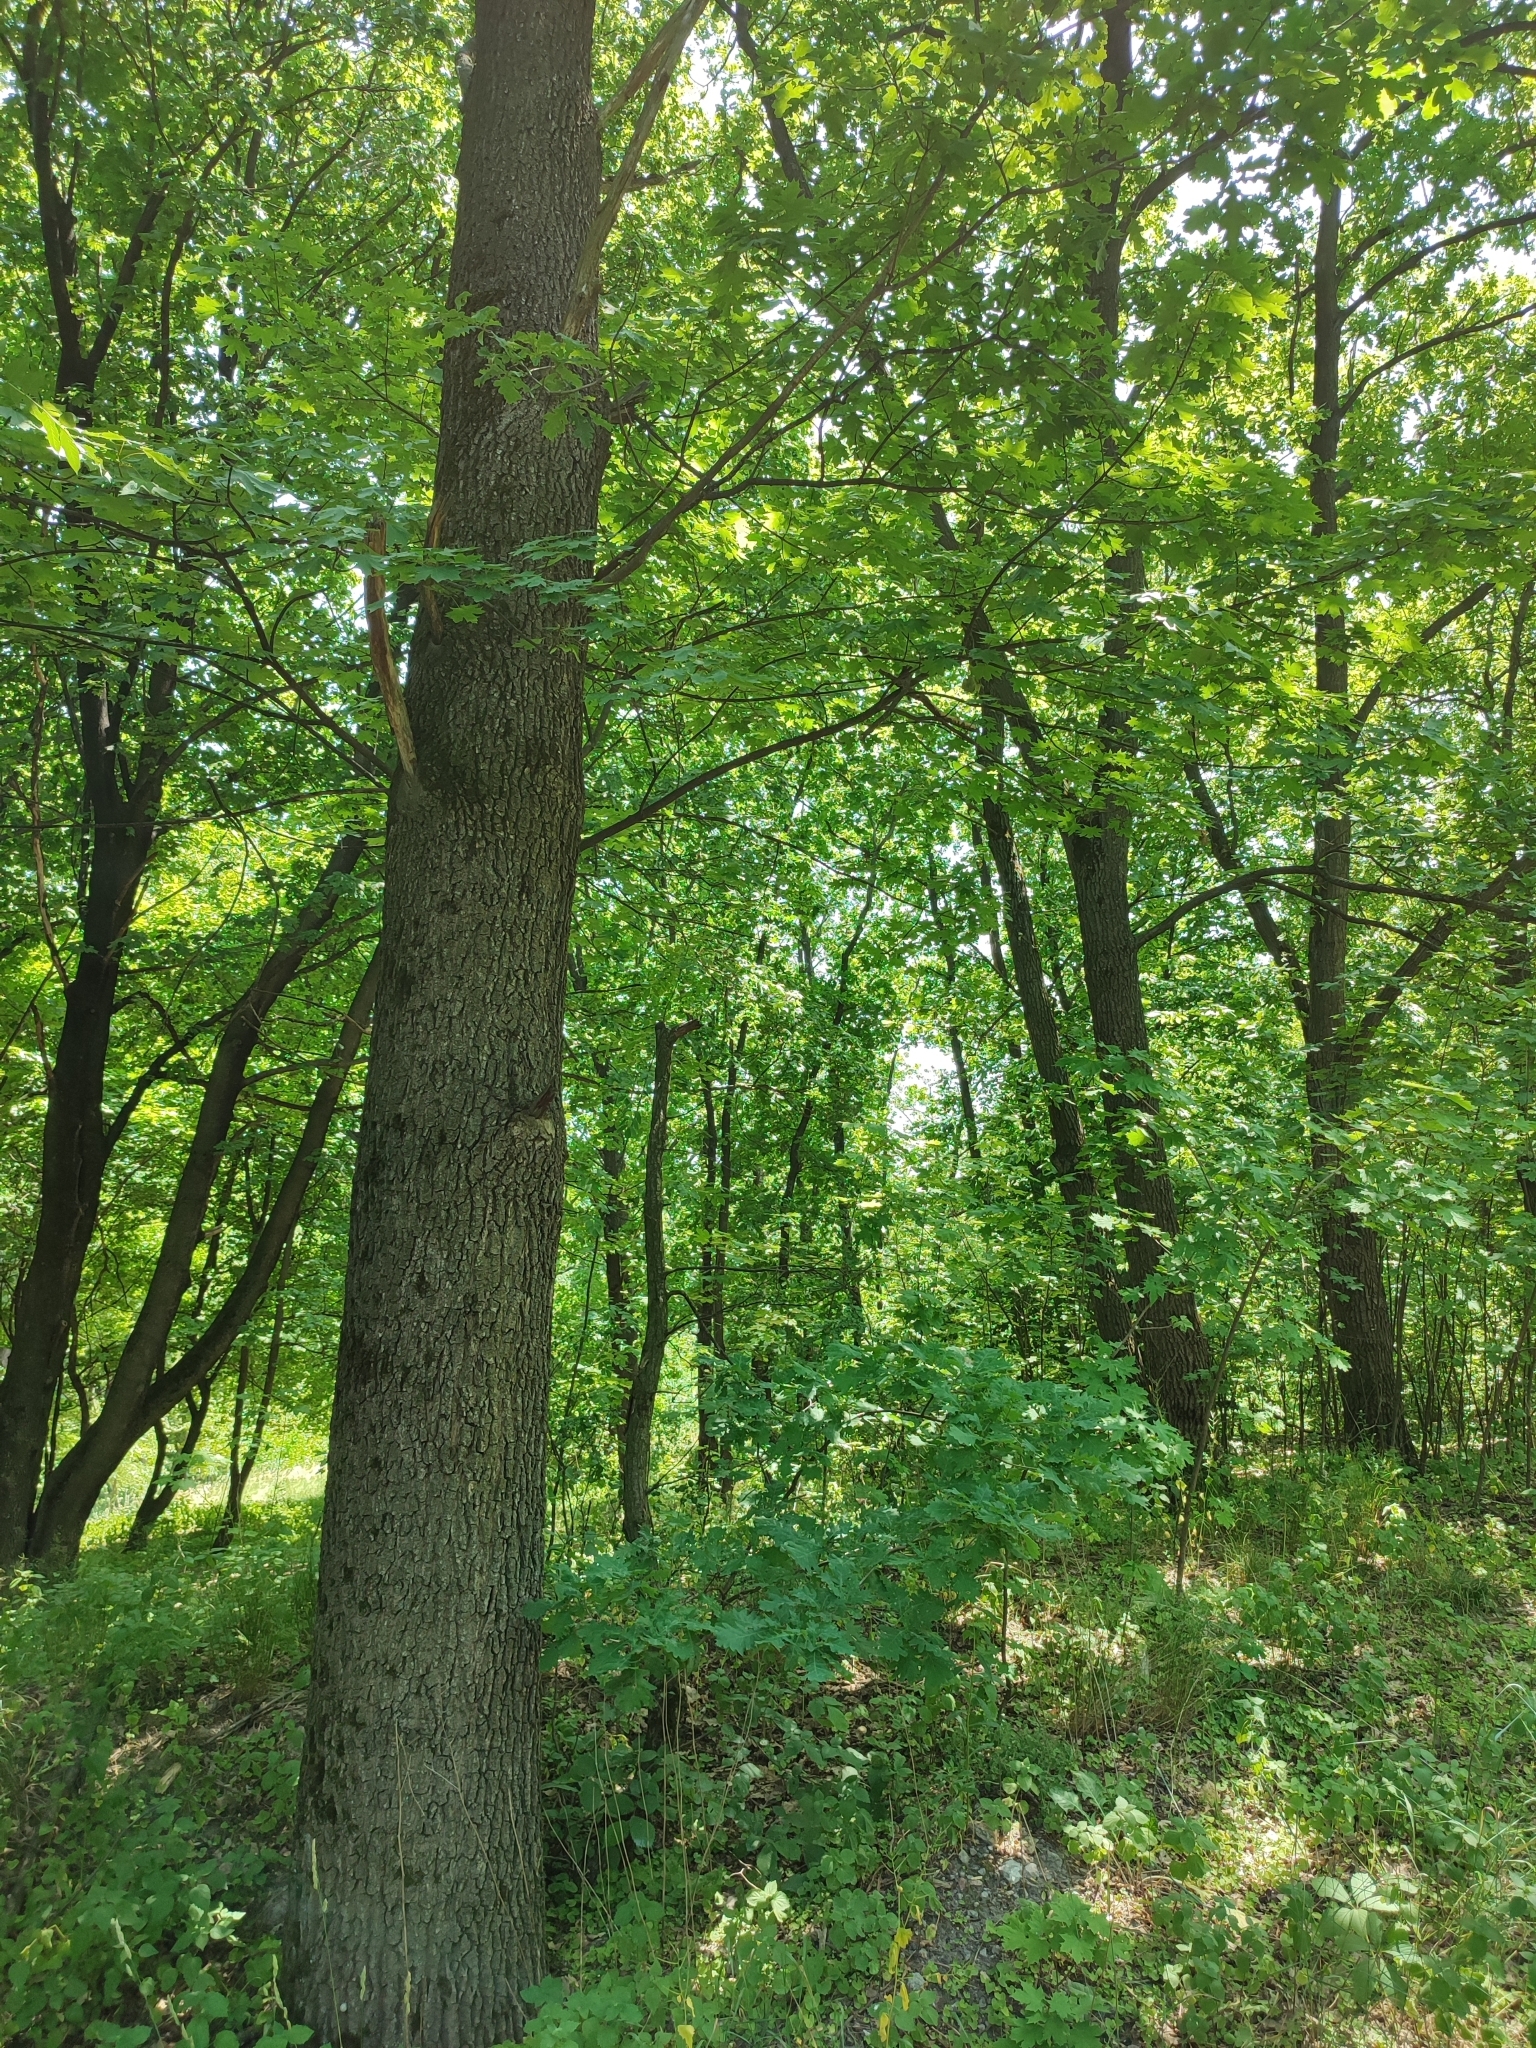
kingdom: Plantae
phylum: Tracheophyta
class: Magnoliopsida
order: Fagales
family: Fagaceae
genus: Quercus
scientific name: Quercus robur
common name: Pedunculate oak
